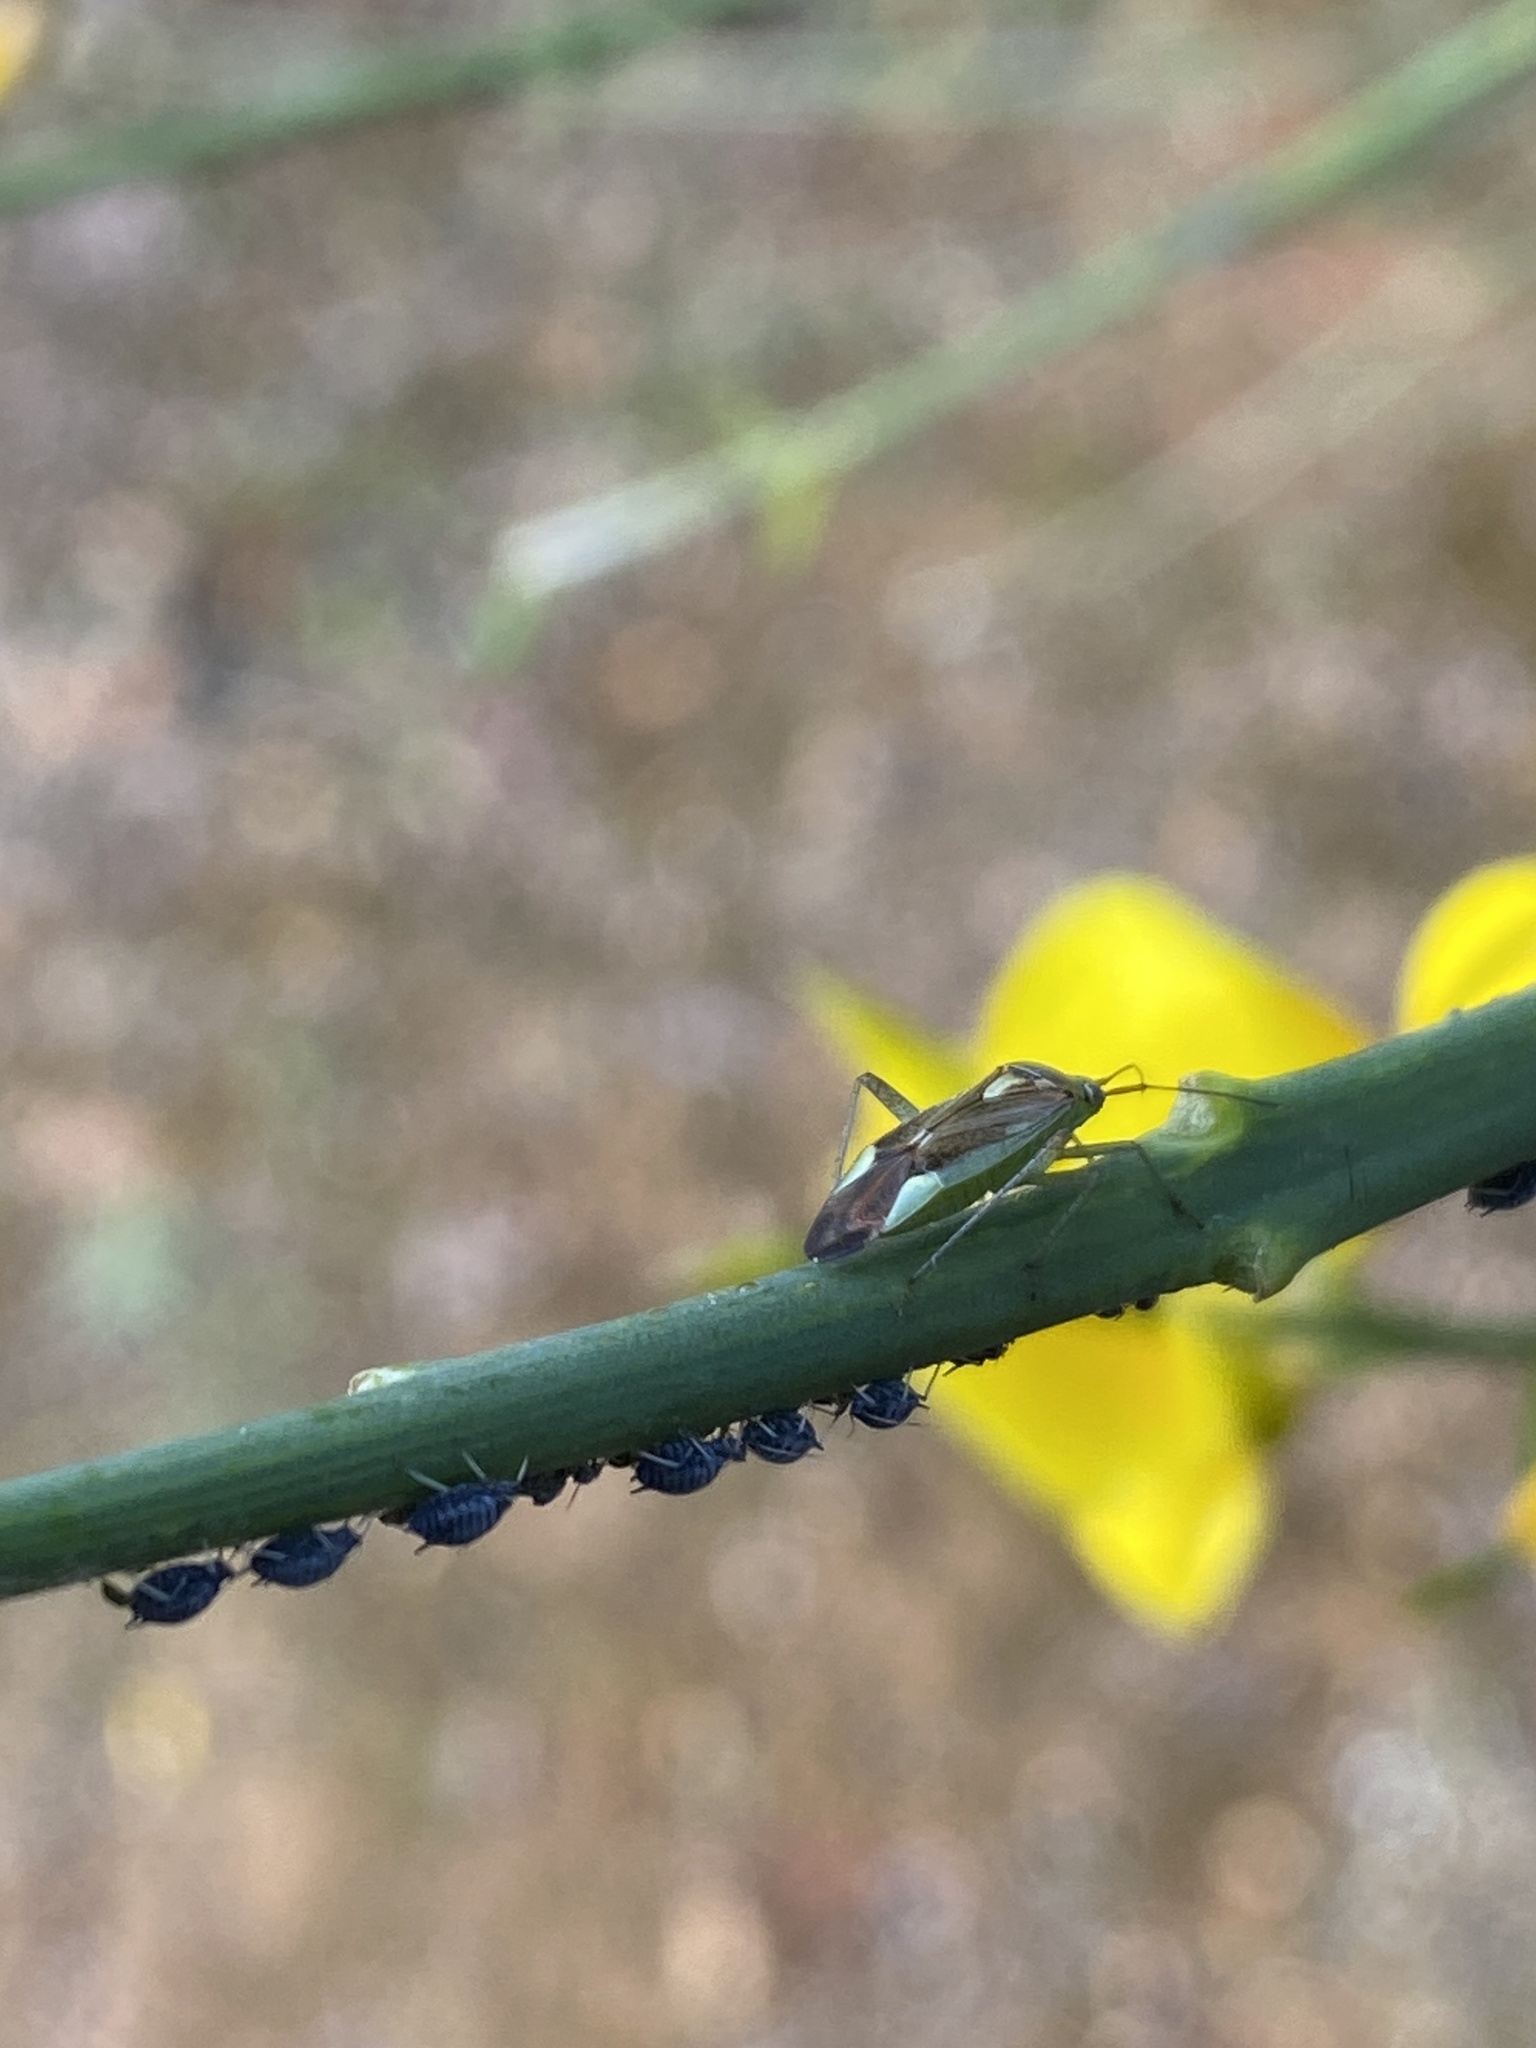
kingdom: Animalia
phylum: Arthropoda
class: Insecta
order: Hemiptera
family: Miridae
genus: Closterotomus
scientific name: Closterotomus trivialis
